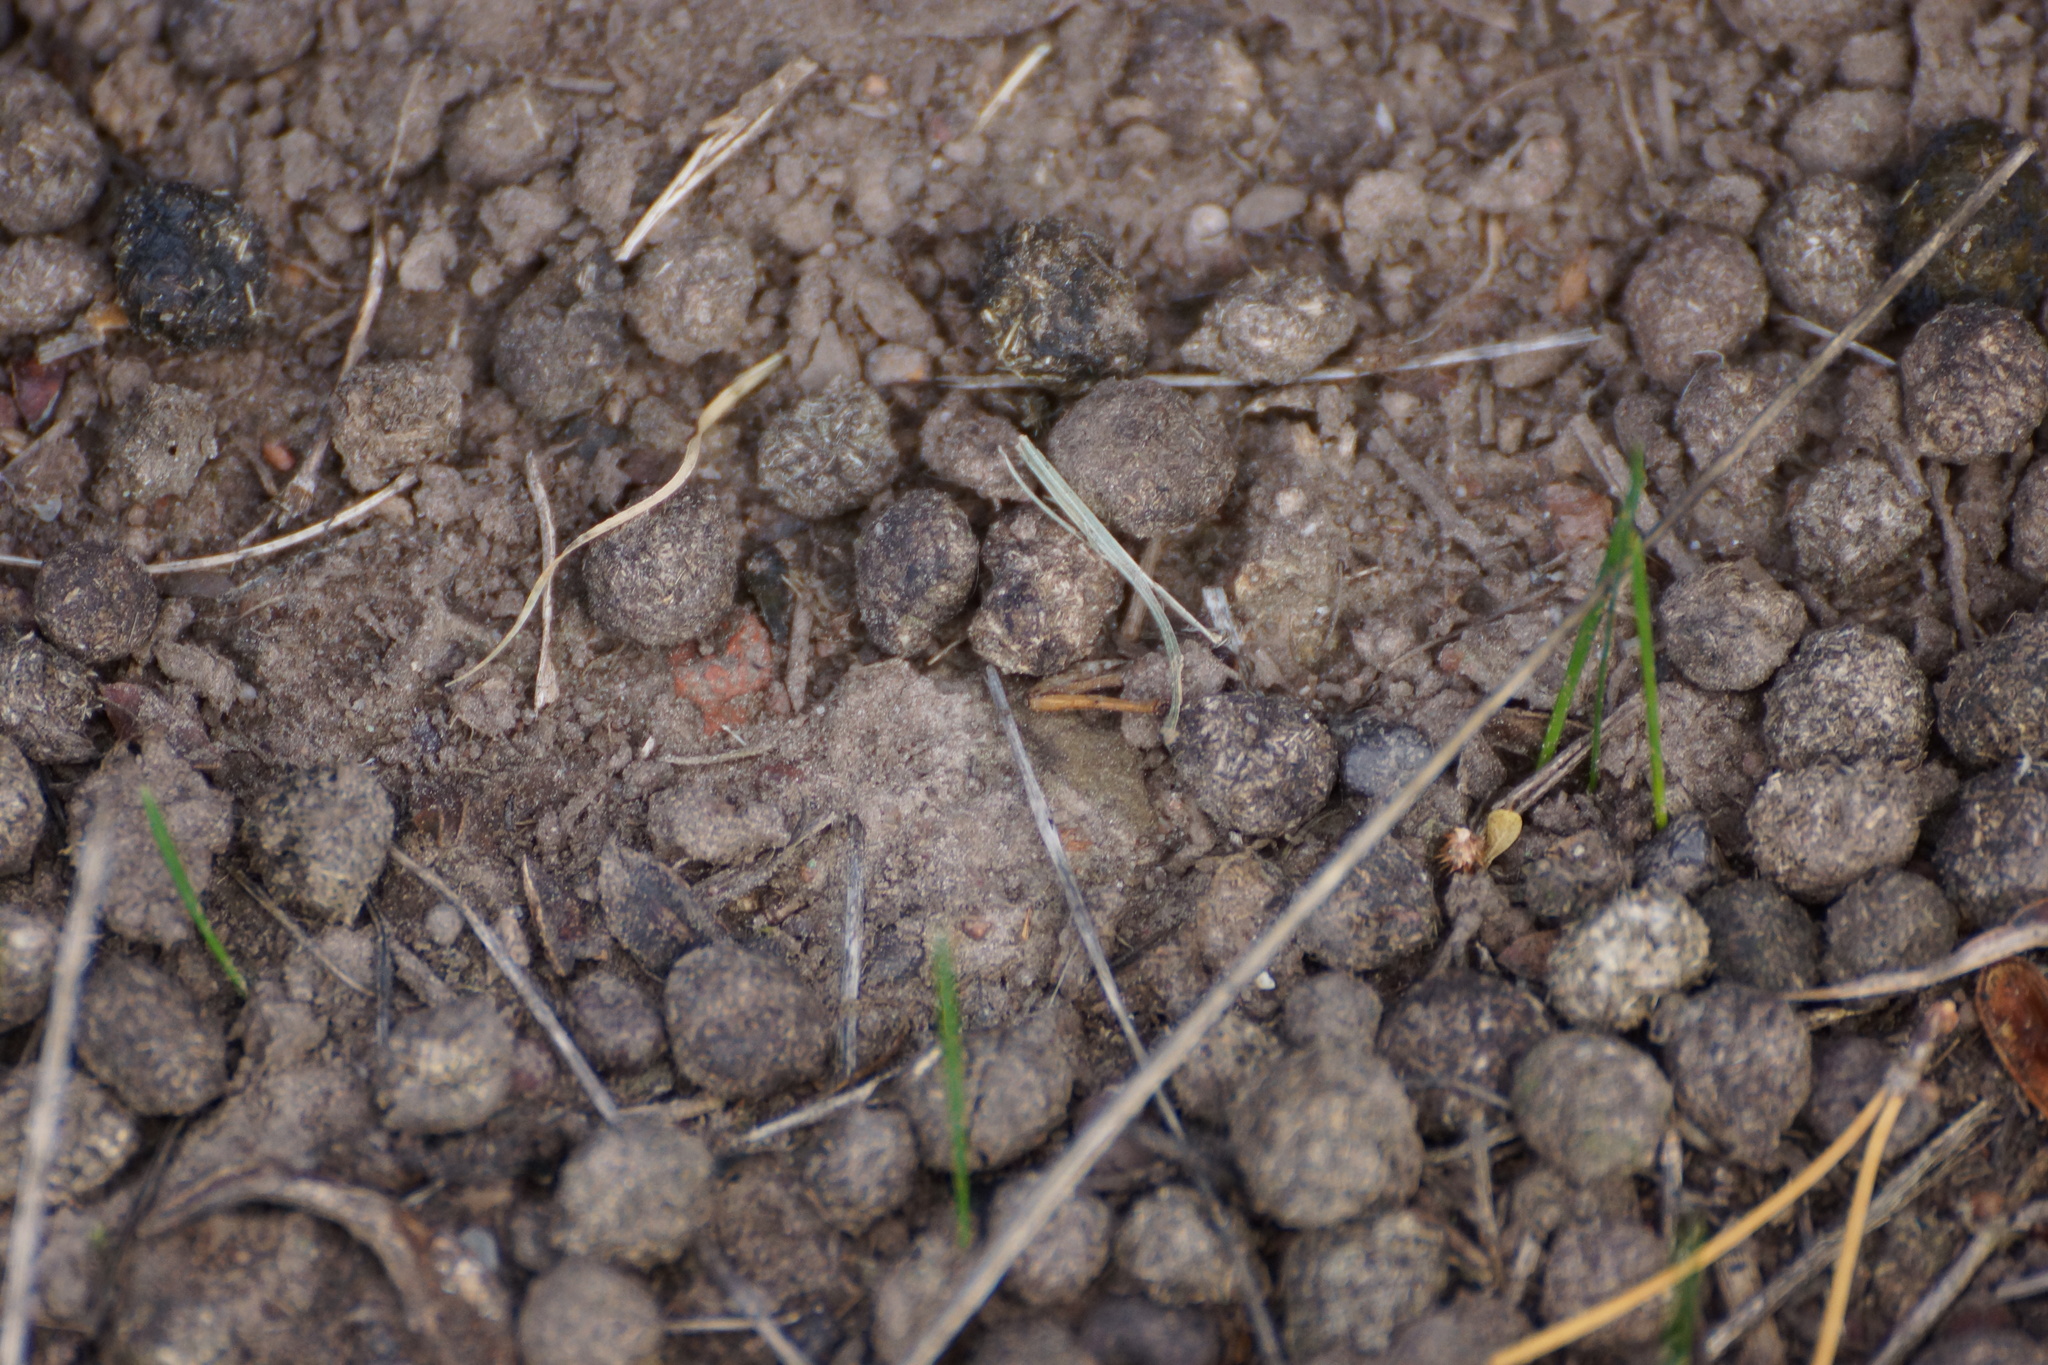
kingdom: Animalia
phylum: Chordata
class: Mammalia
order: Lagomorpha
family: Leporidae
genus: Oryctolagus
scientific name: Oryctolagus cuniculus
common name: European rabbit
